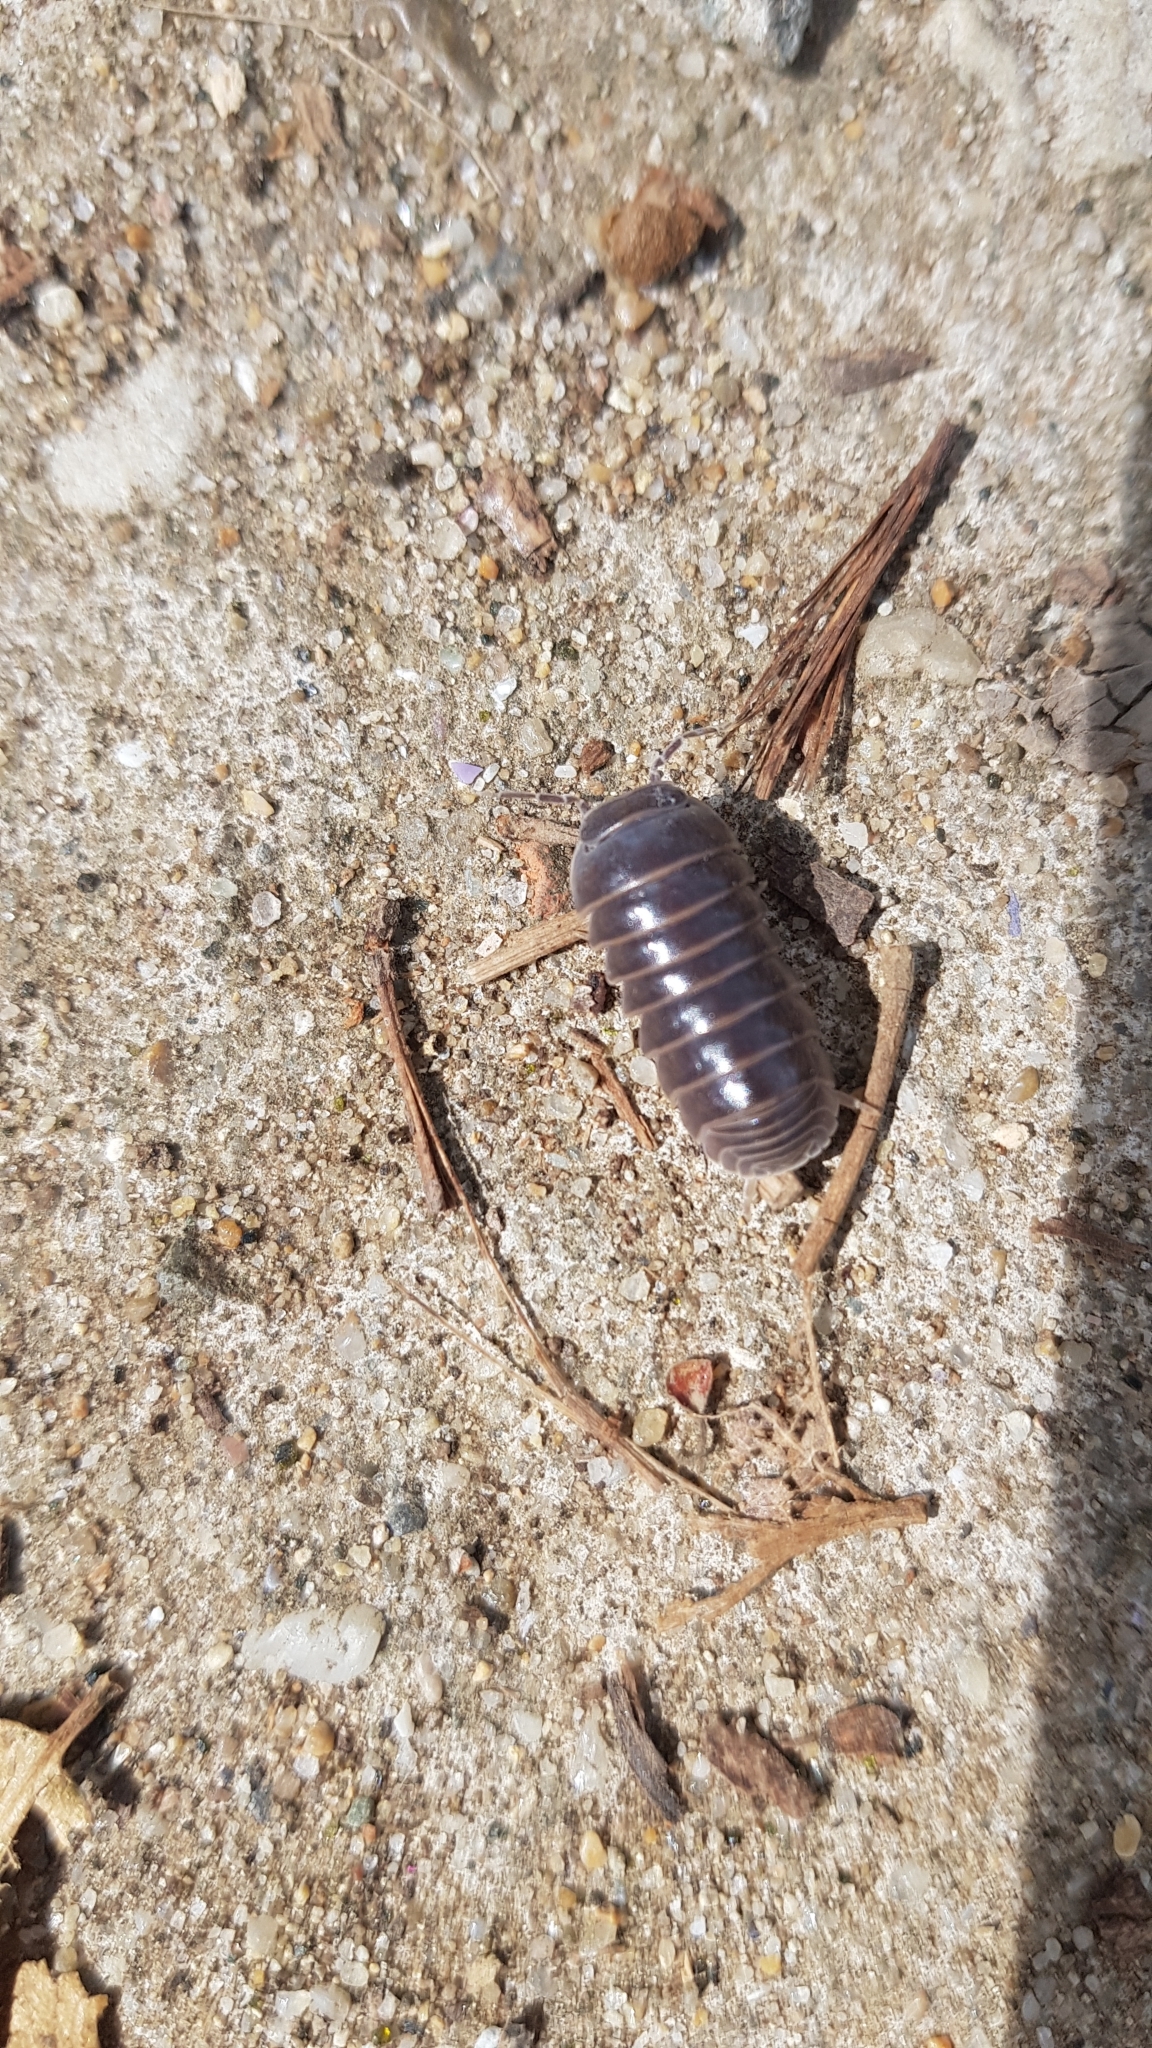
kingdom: Animalia
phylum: Arthropoda
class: Malacostraca
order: Isopoda
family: Armadillidae
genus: Armadillo
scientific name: Armadillo officinalis
